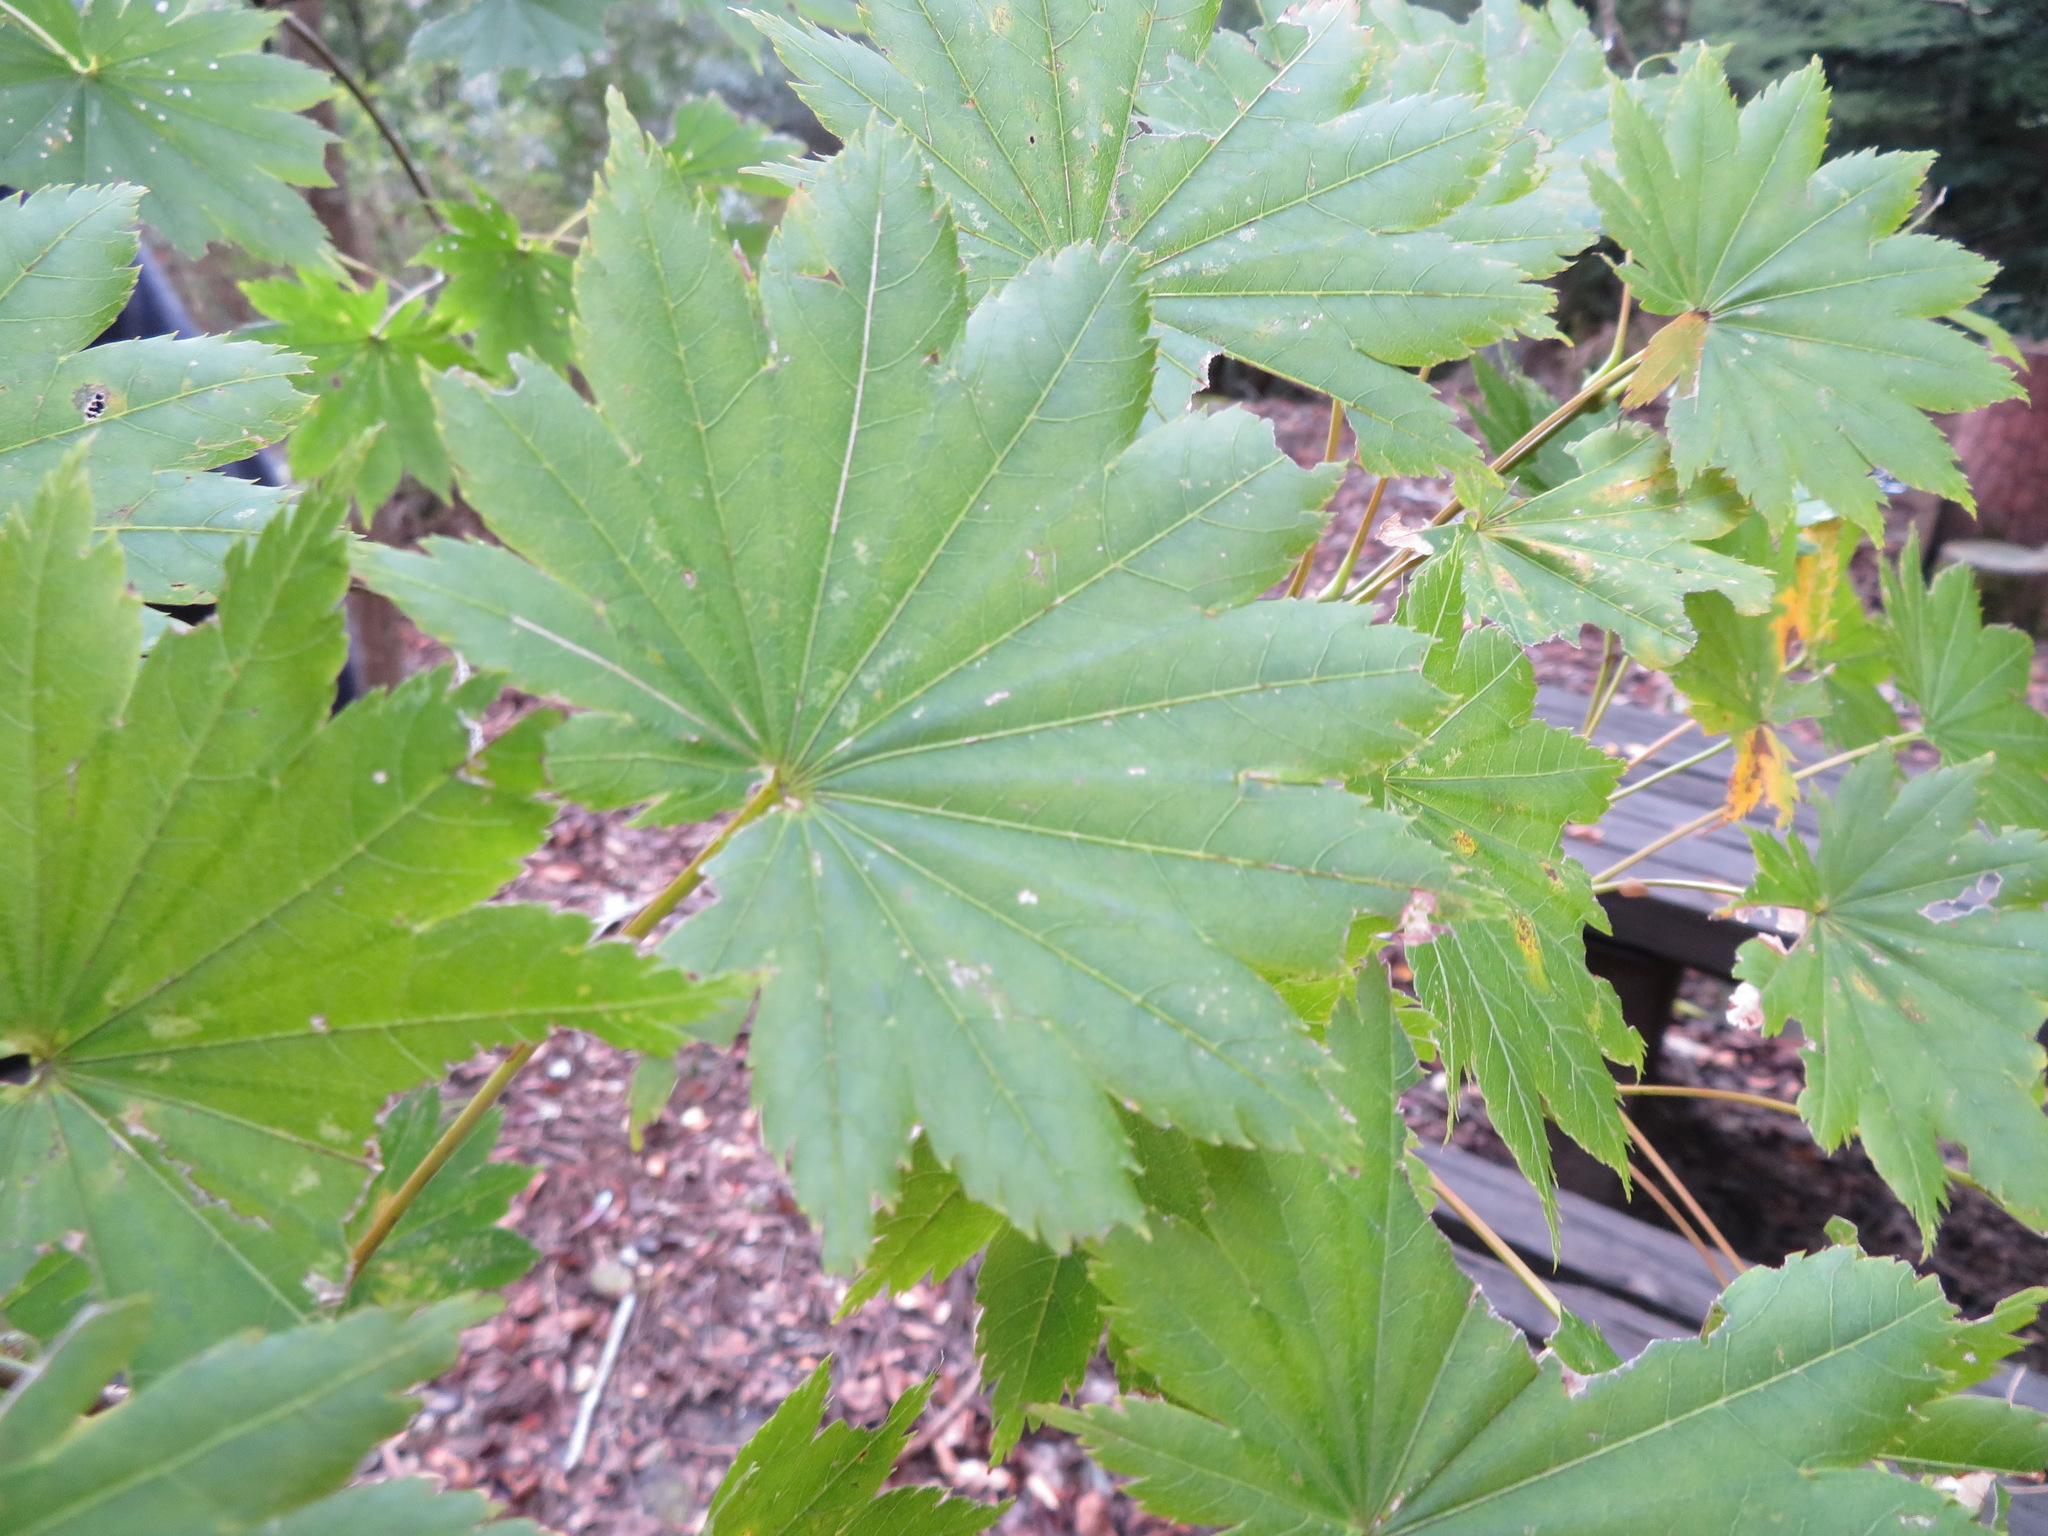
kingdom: Plantae
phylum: Tracheophyta
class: Magnoliopsida
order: Sapindales
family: Sapindaceae
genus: Acer
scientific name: Acer shirasawanum
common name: Full moon maple
